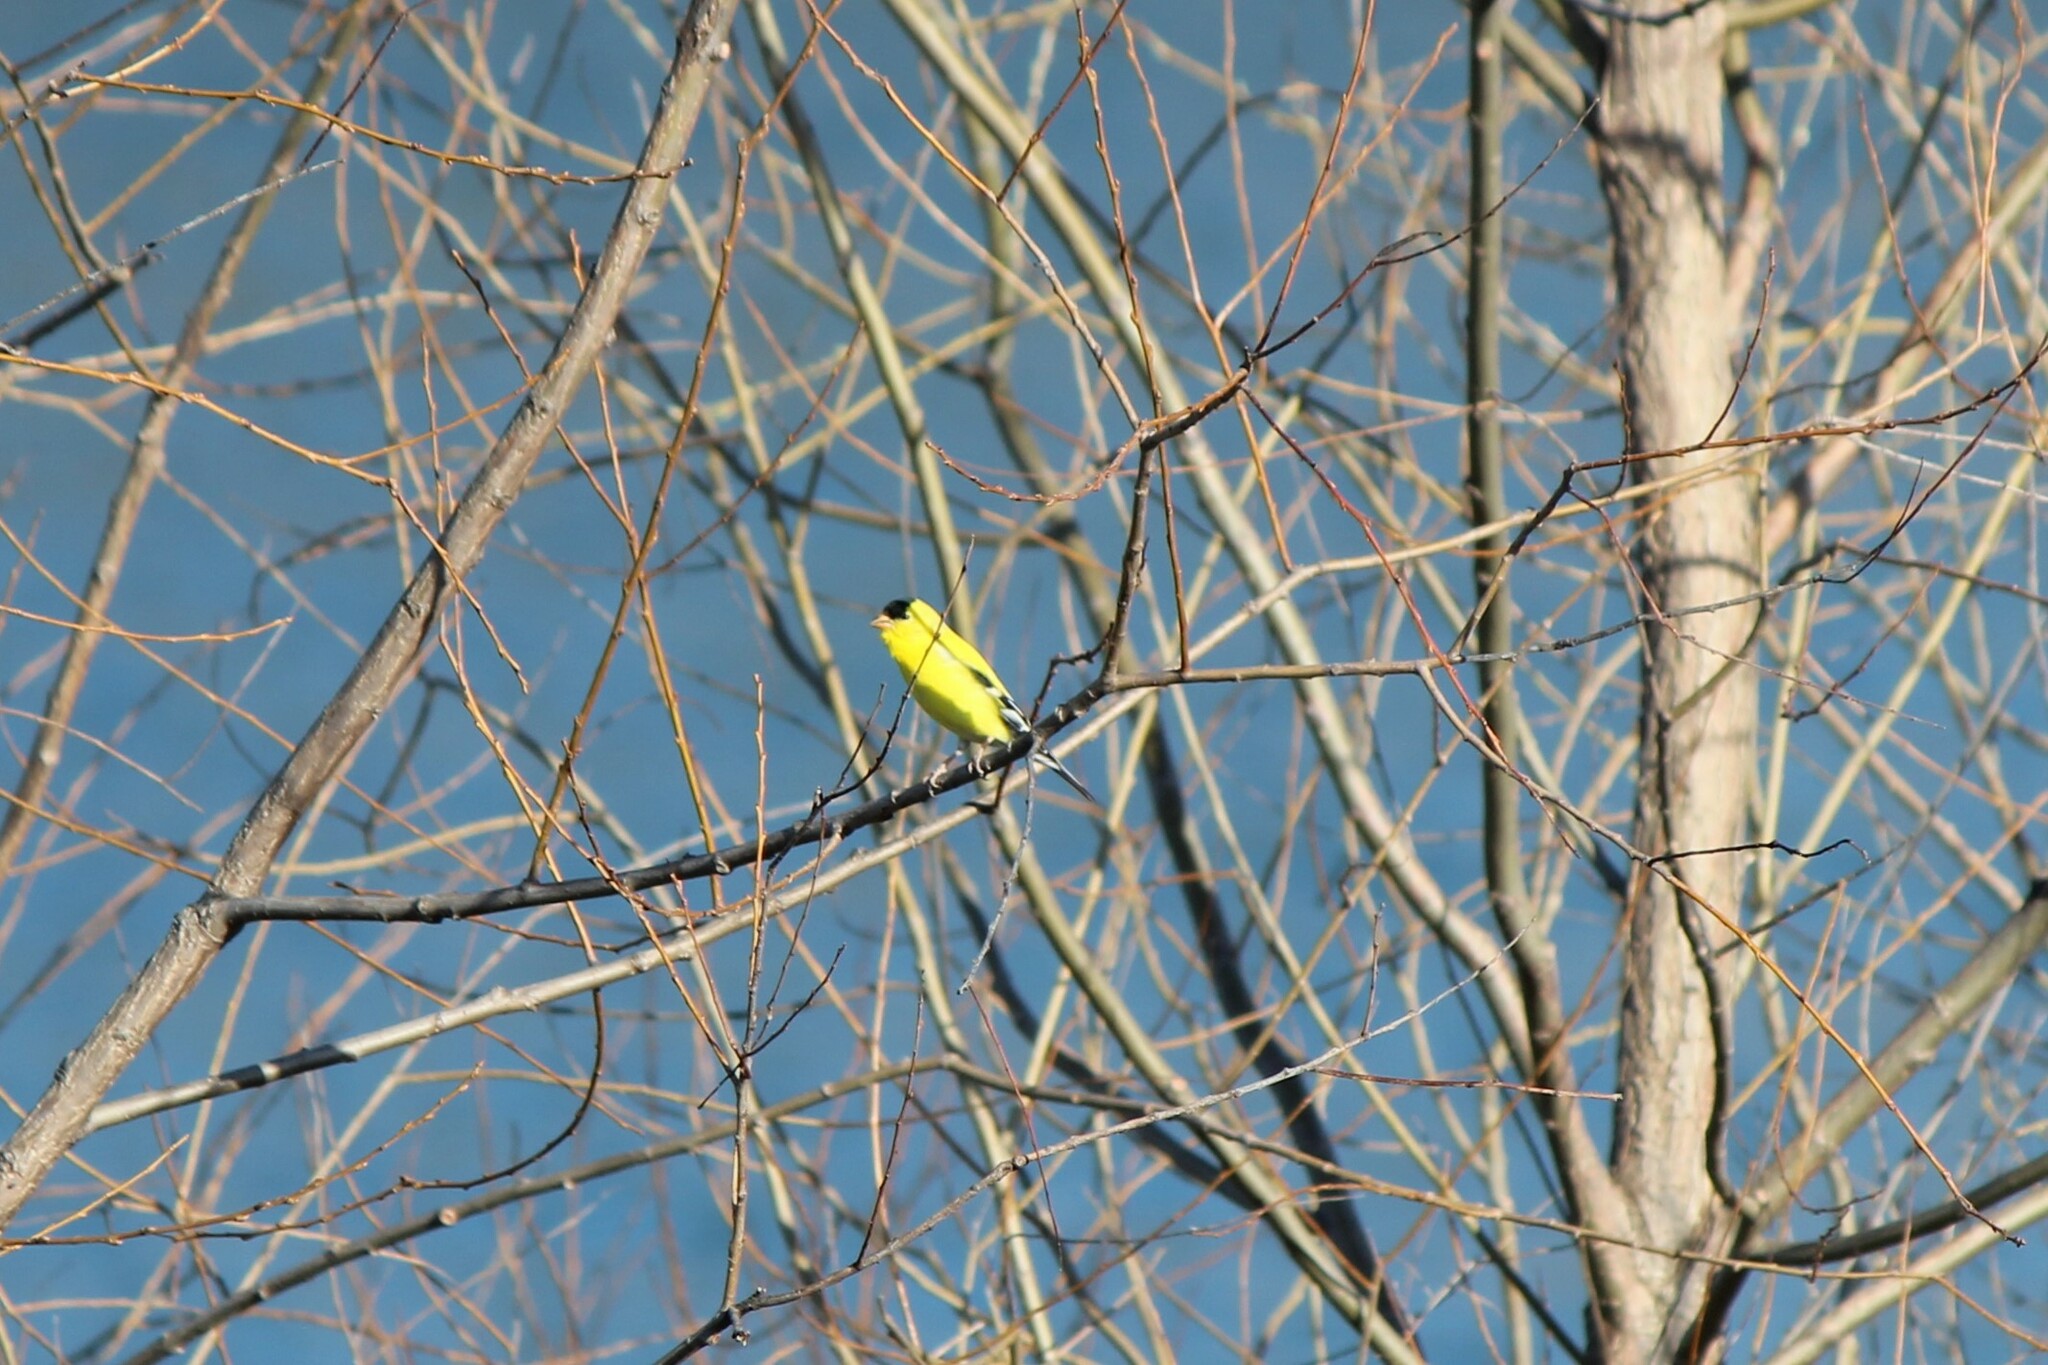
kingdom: Animalia
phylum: Chordata
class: Aves
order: Passeriformes
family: Fringillidae
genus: Spinus
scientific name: Spinus tristis
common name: American goldfinch
